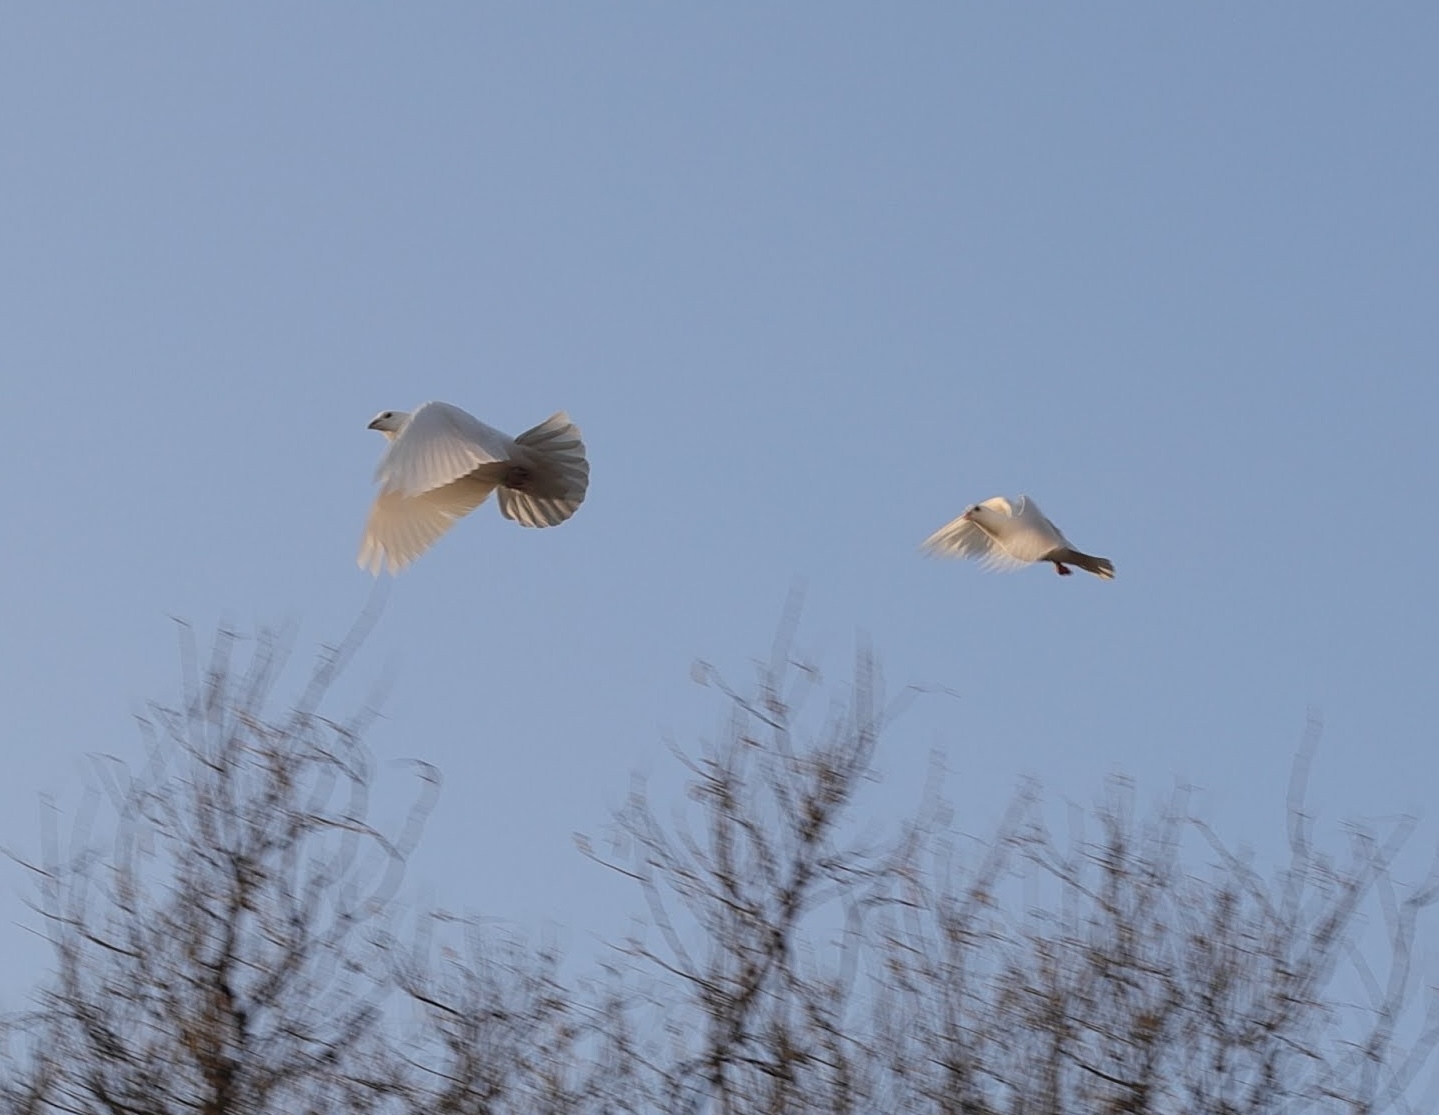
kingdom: Animalia
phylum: Chordata
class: Aves
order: Columbiformes
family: Columbidae
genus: Columba
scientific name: Columba livia
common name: Rock pigeon
